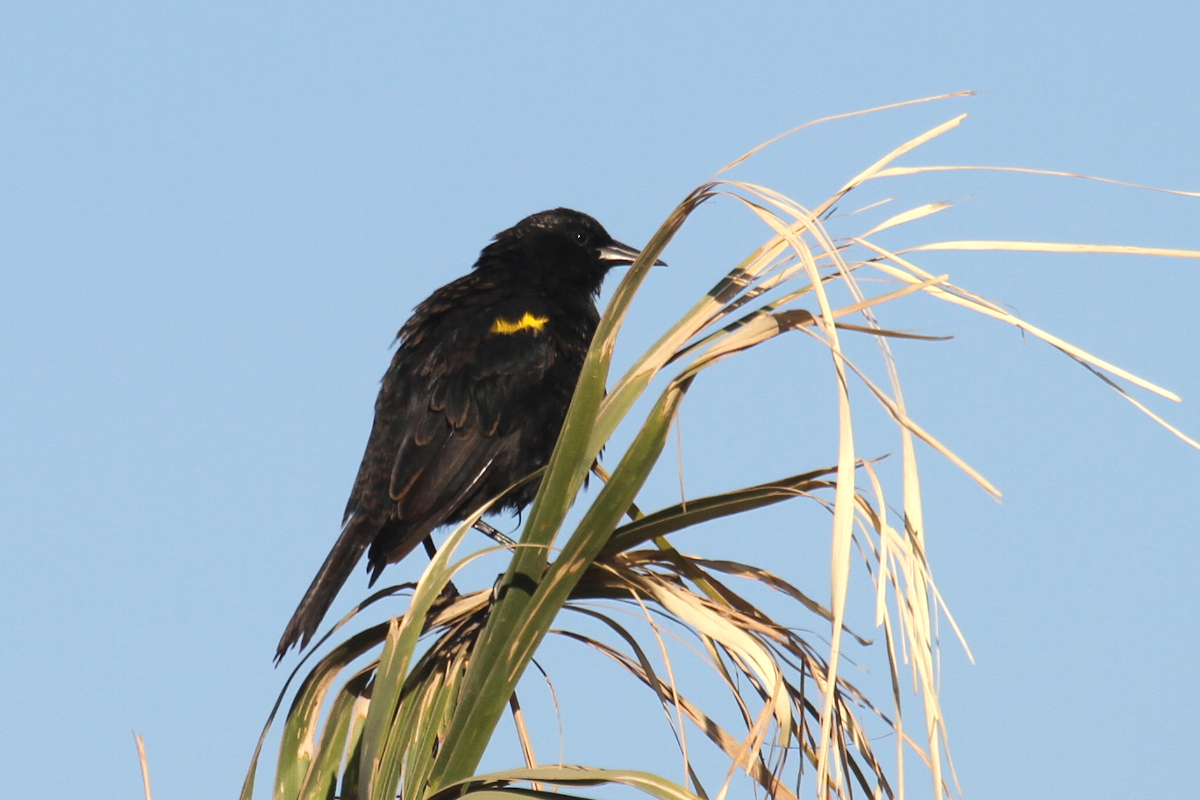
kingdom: Animalia
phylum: Chordata
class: Aves
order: Passeriformes
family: Icteridae
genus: Agelasticus
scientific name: Agelasticus thilius
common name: Yellow-winged blackbird
